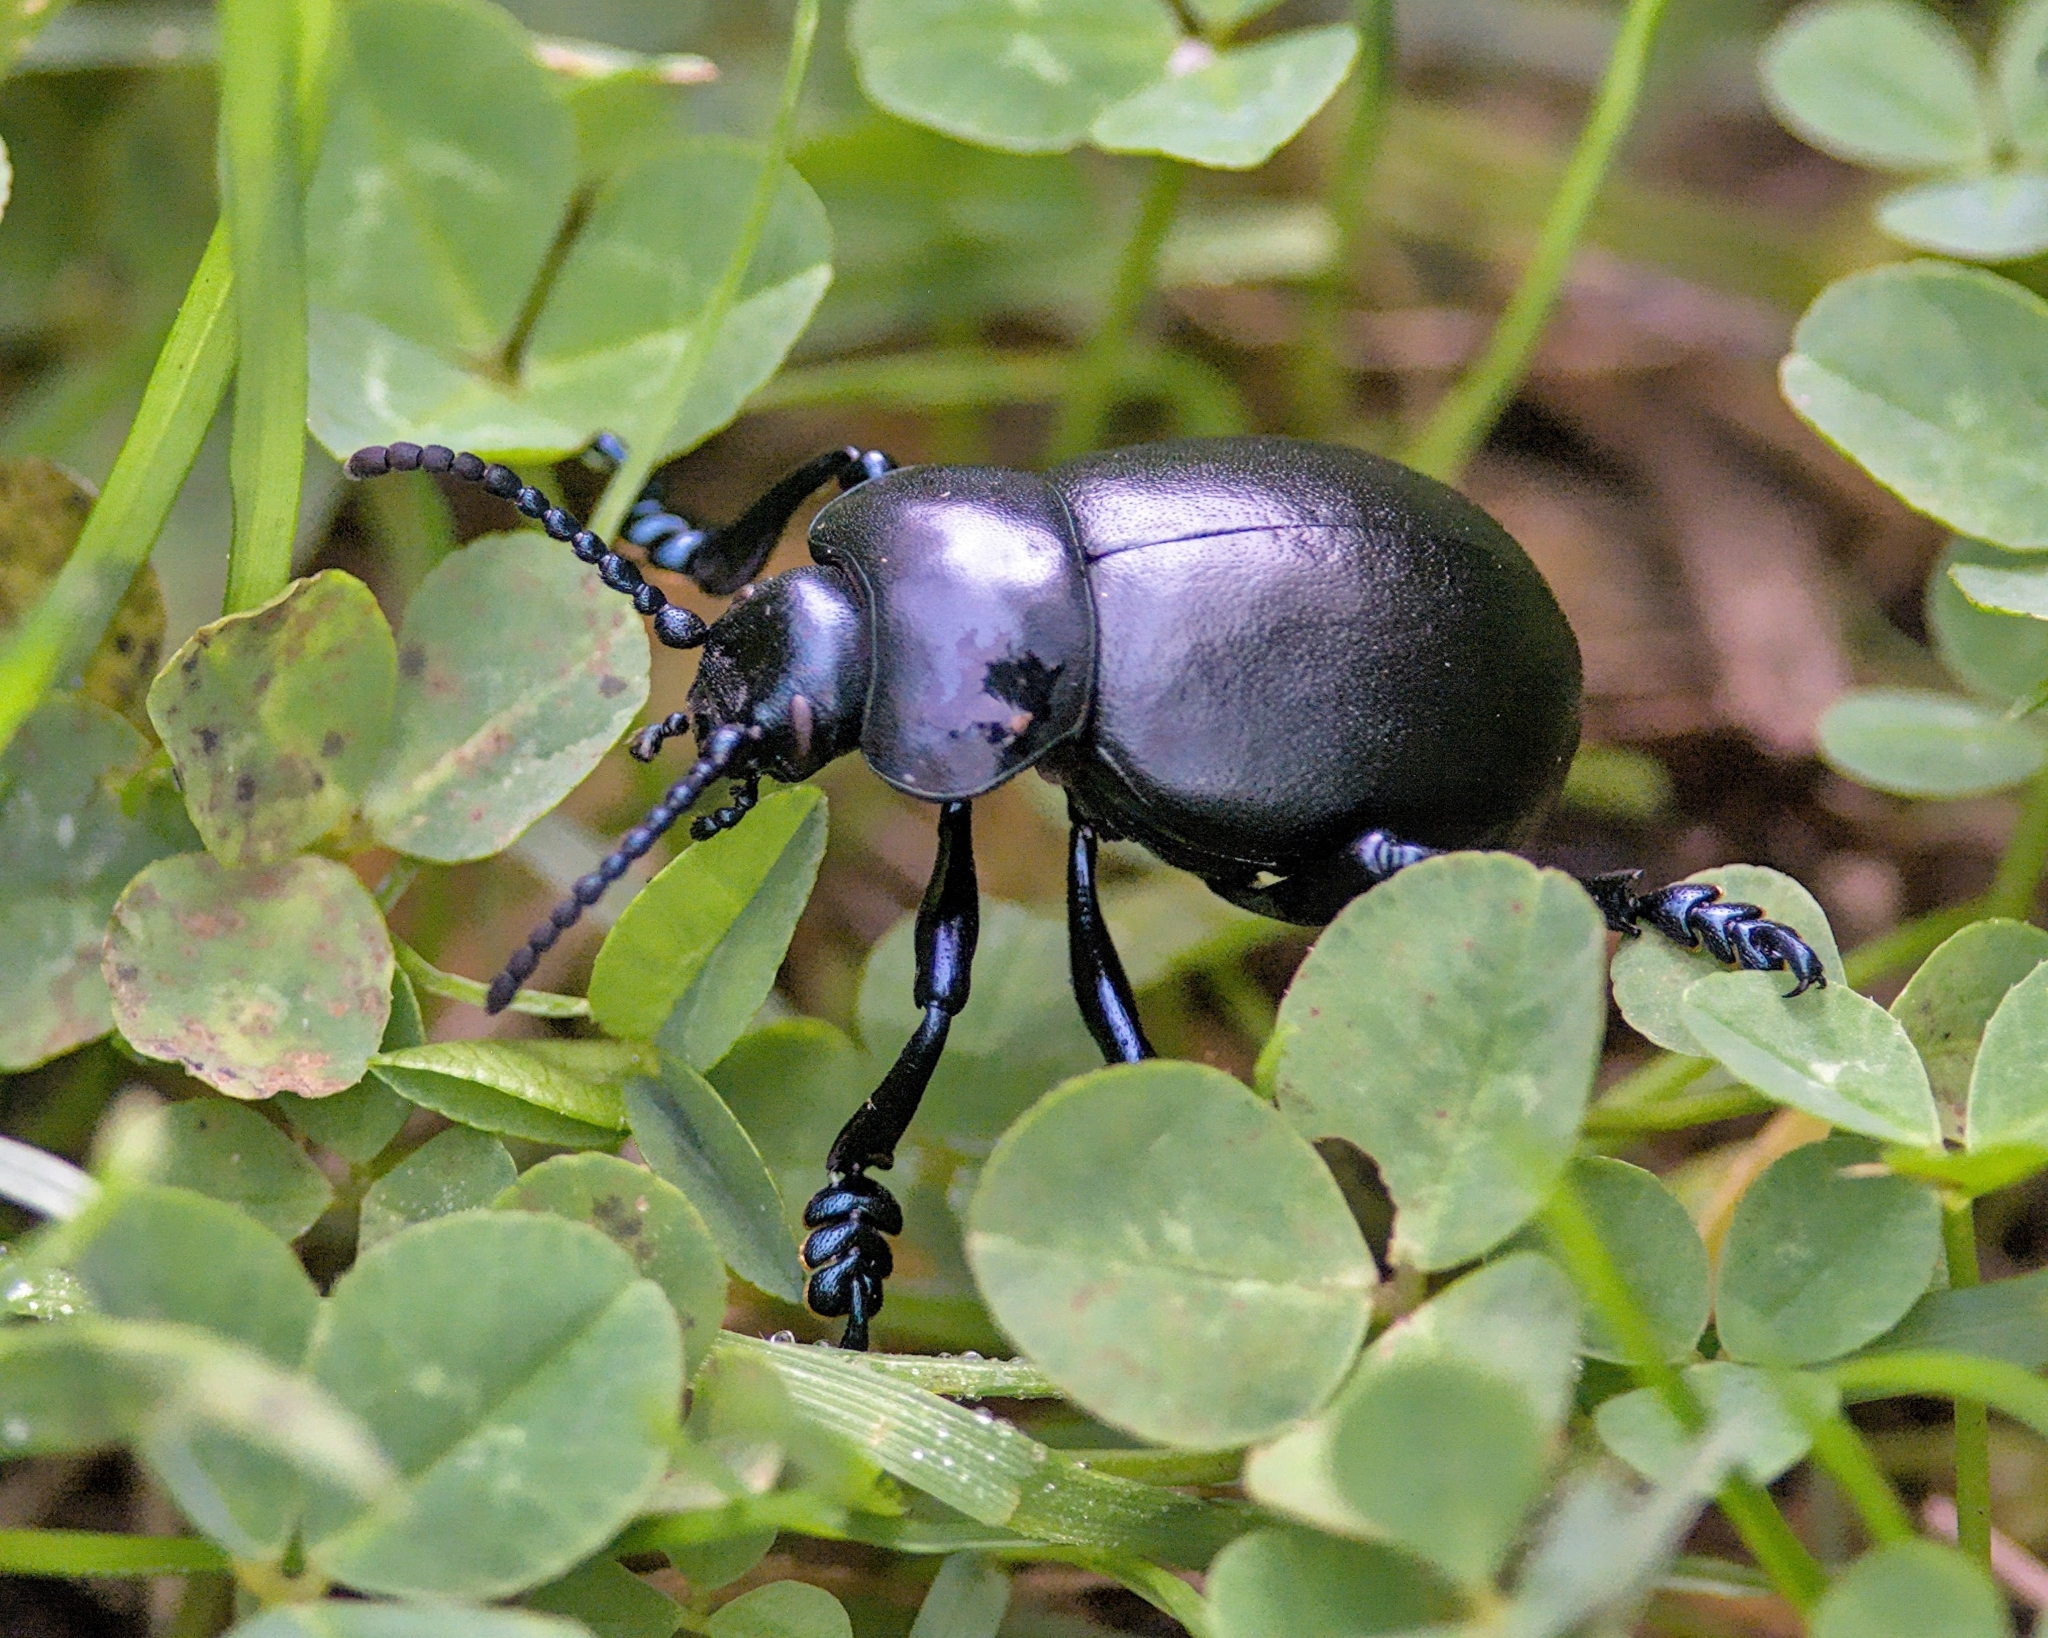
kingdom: Animalia
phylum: Arthropoda
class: Insecta
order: Coleoptera
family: Chrysomelidae
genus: Timarcha
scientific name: Timarcha tenebricosa
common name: Bloody-nosed beetle
